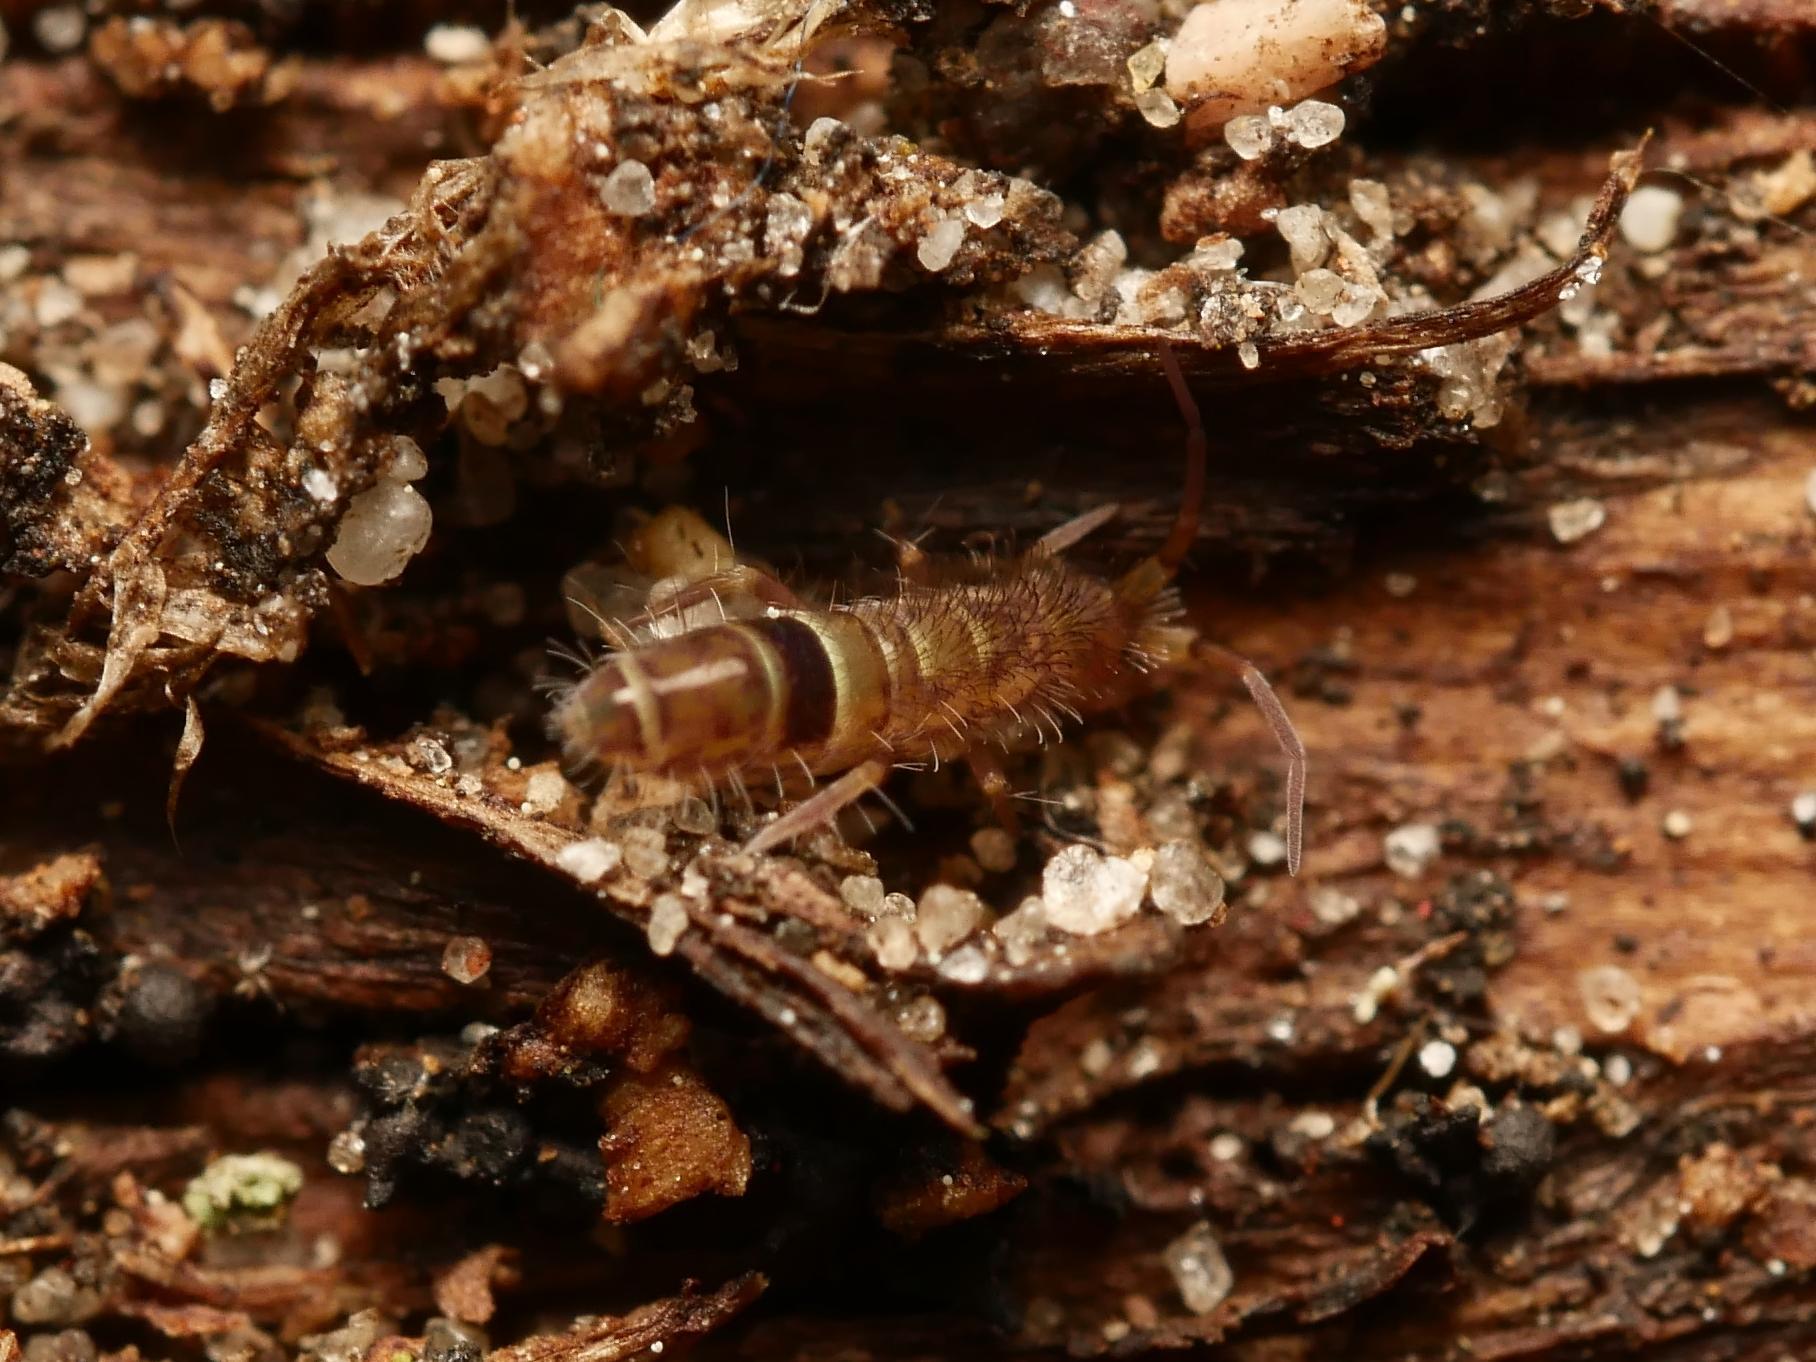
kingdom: Animalia
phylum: Arthropoda
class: Collembola
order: Entomobryomorpha
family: Orchesellidae
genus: Orchesella
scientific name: Orchesella cincta
